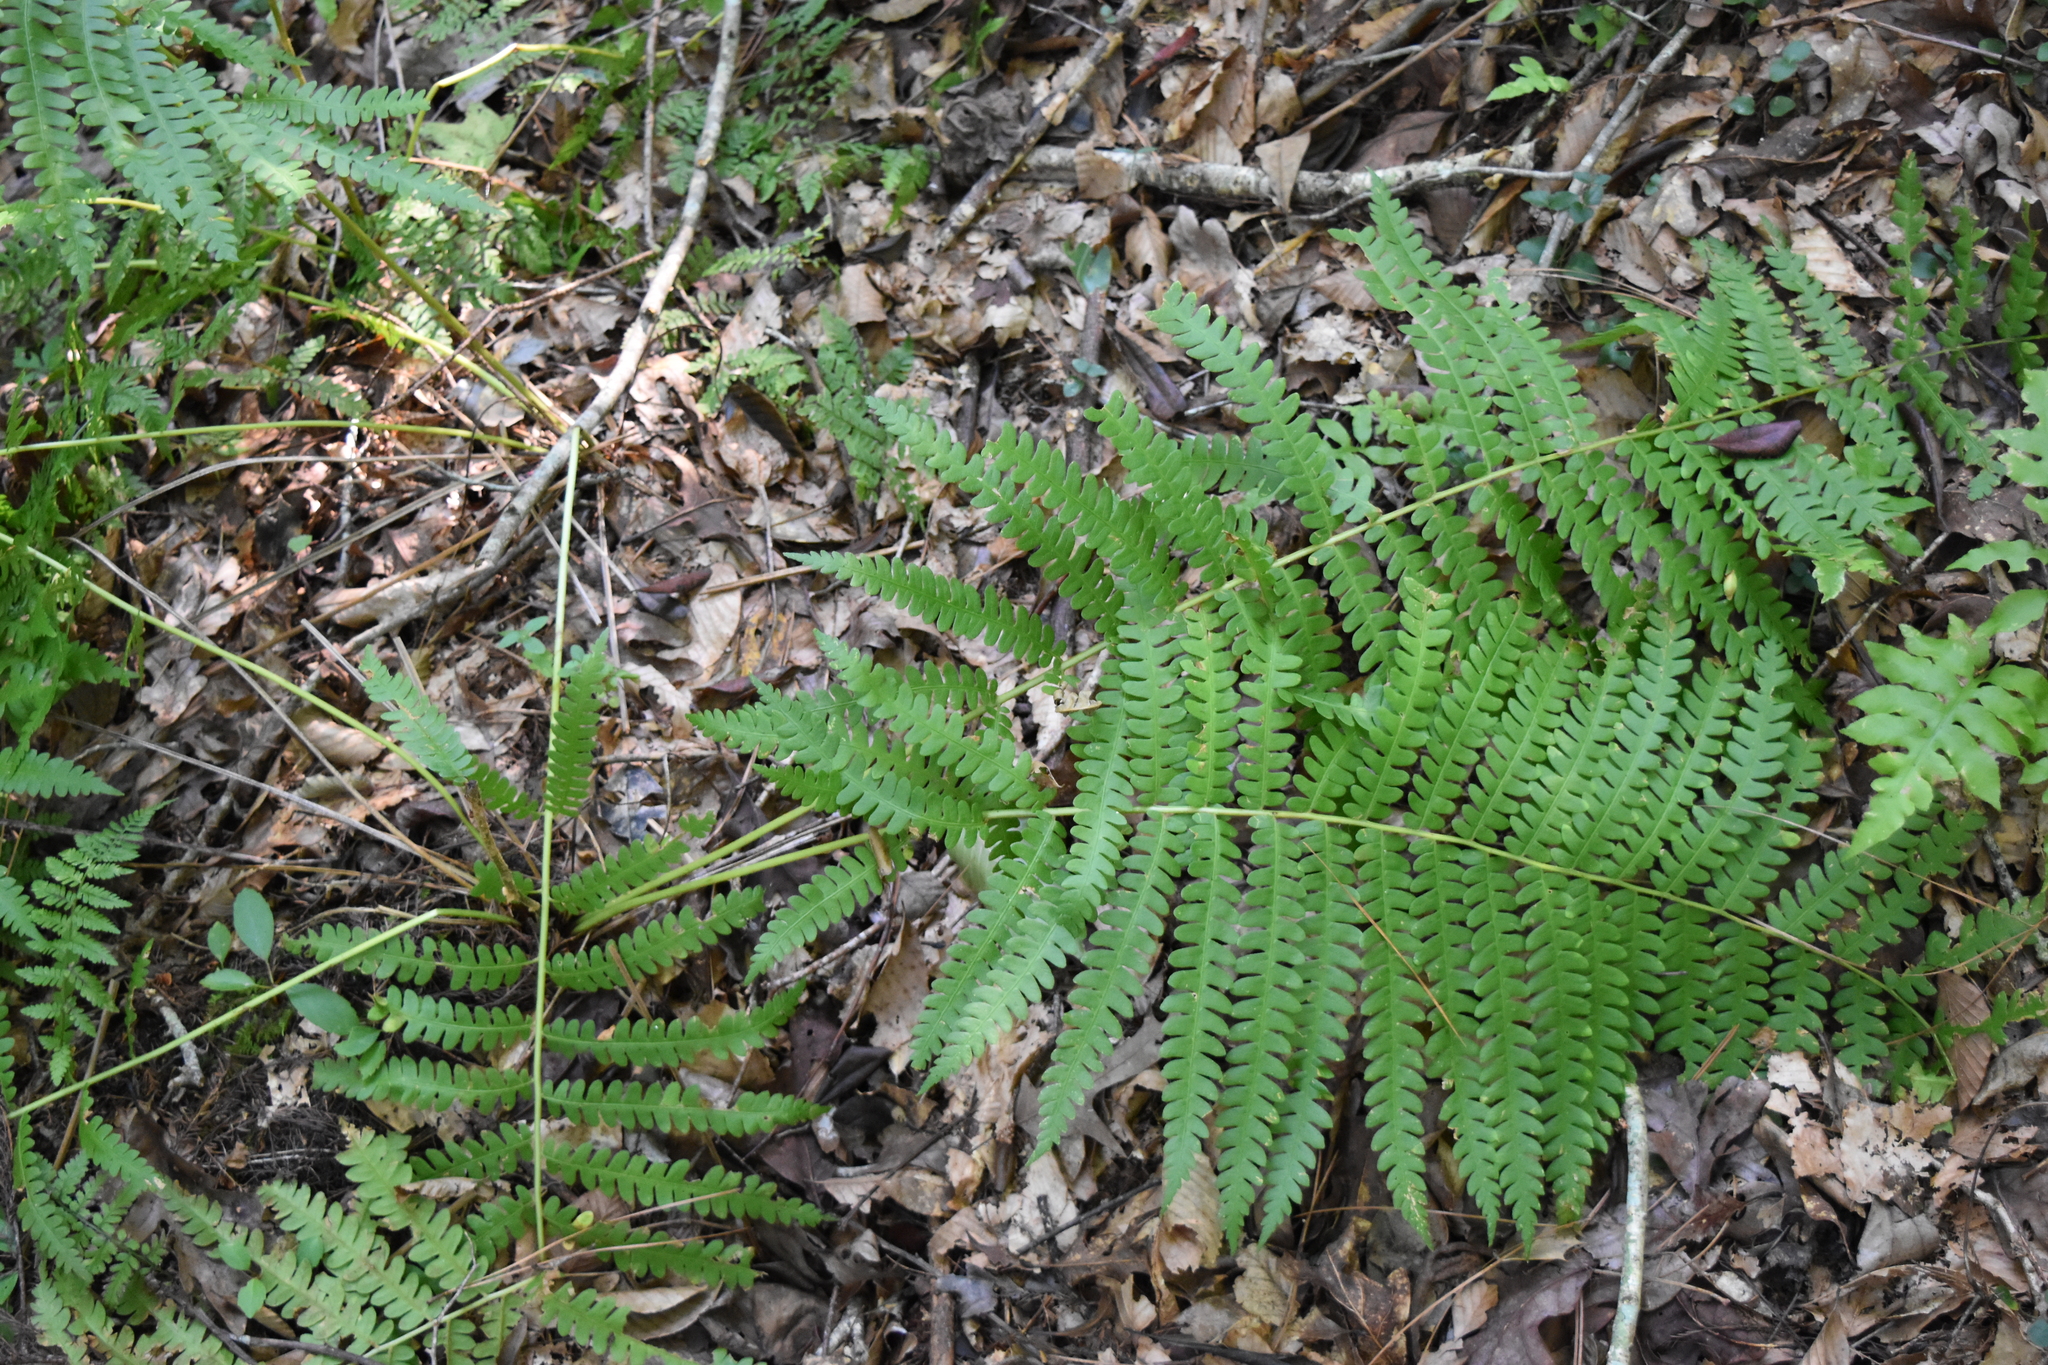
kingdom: Plantae
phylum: Tracheophyta
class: Polypodiopsida
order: Osmundales
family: Osmundaceae
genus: Osmundastrum
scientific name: Osmundastrum cinnamomeum
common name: Cinnamon fern
